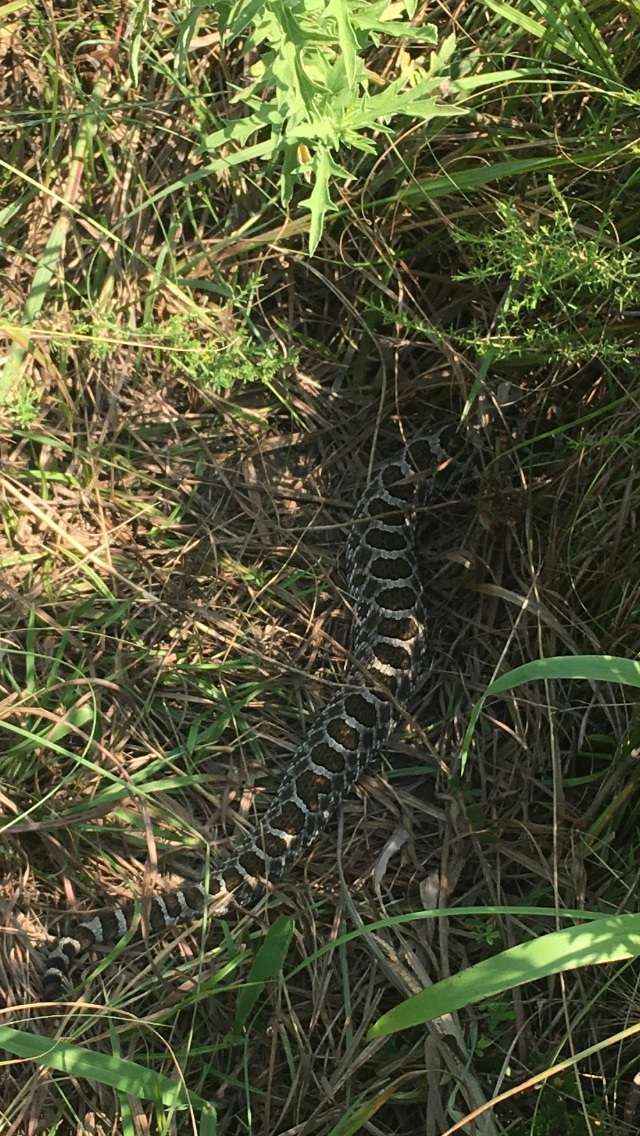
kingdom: Animalia
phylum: Chordata
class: Squamata
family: Viperidae
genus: Sistrurus
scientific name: Sistrurus tergeminus
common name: Desert massasauga [edwardsi]
